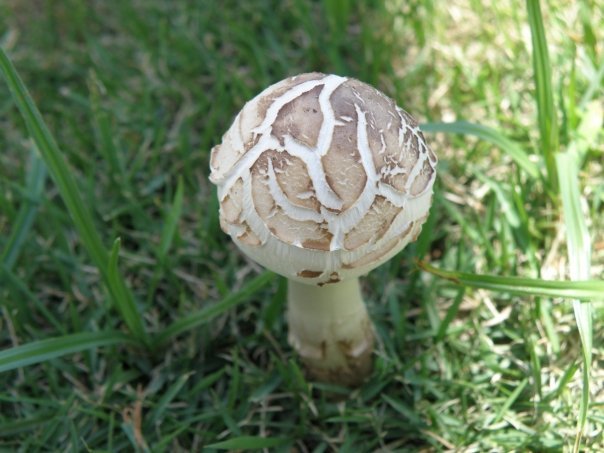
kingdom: Fungi
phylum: Basidiomycota
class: Agaricomycetes
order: Agaricales
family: Agaricaceae
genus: Chlorophyllum
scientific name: Chlorophyllum molybdites
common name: False parasol
